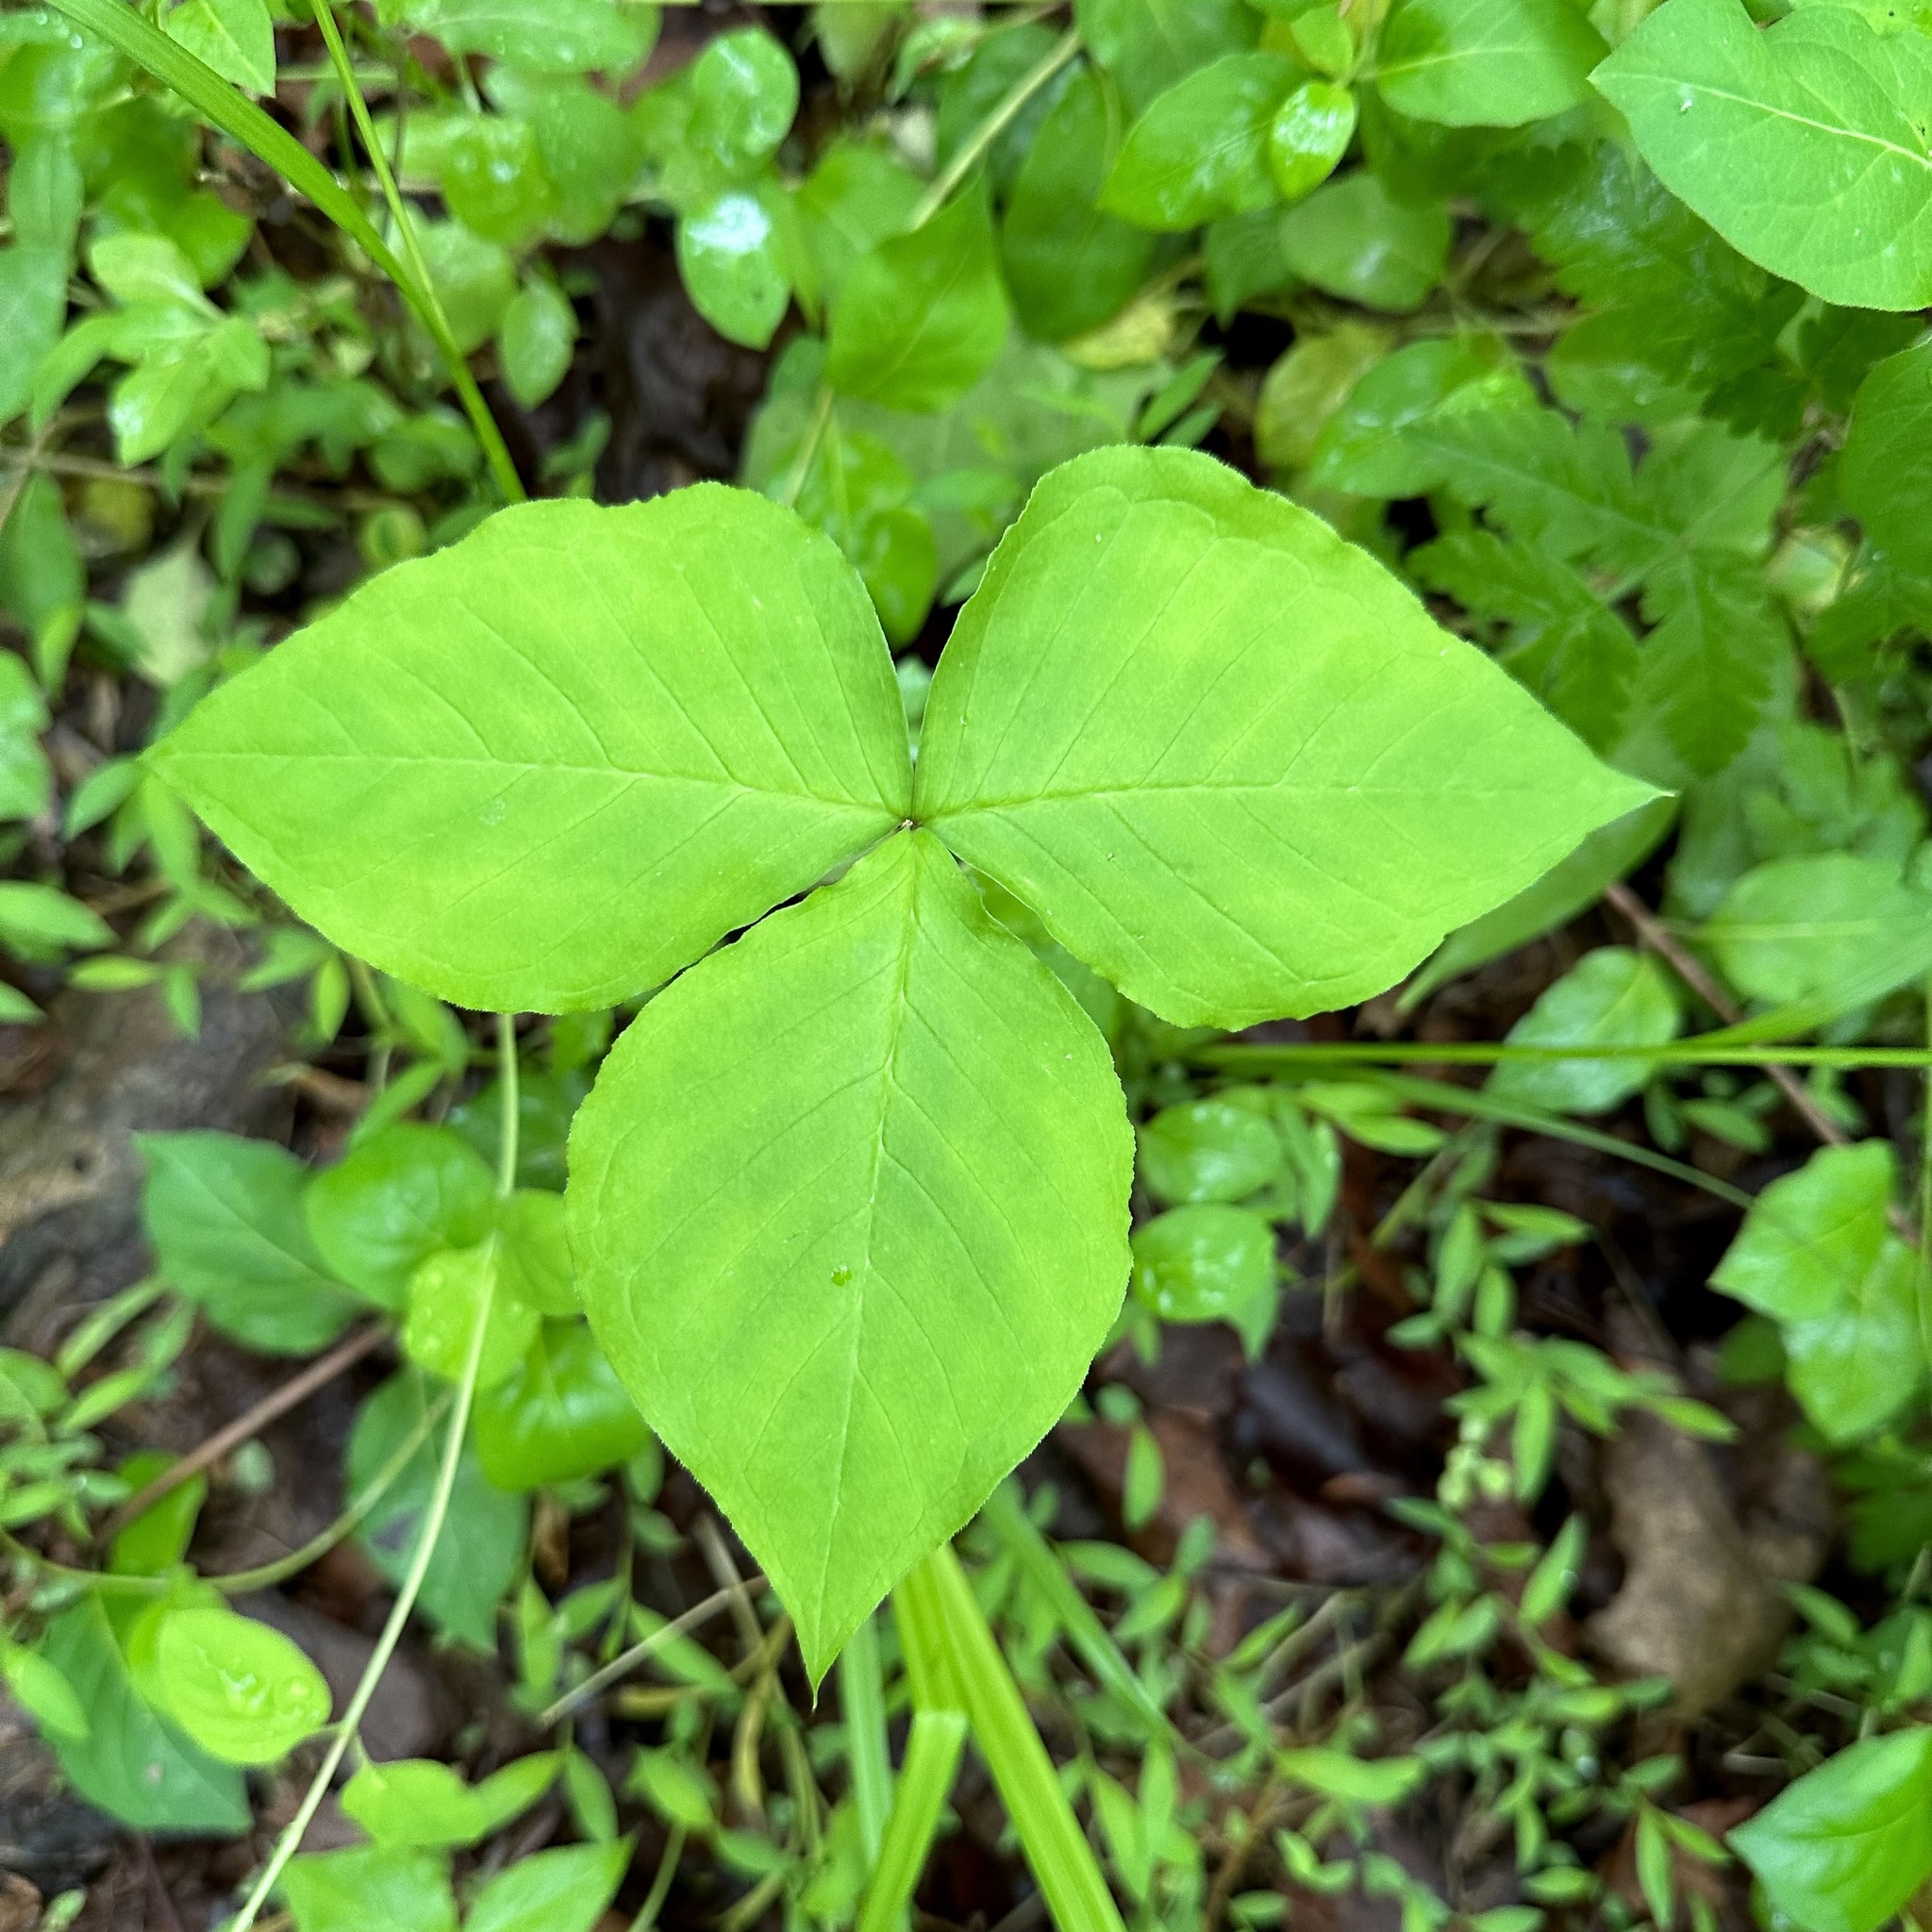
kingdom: Plantae
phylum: Tracheophyta
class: Liliopsida
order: Alismatales
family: Araceae
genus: Arisaema
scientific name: Arisaema triphyllum
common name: Jack-in-the-pulpit
